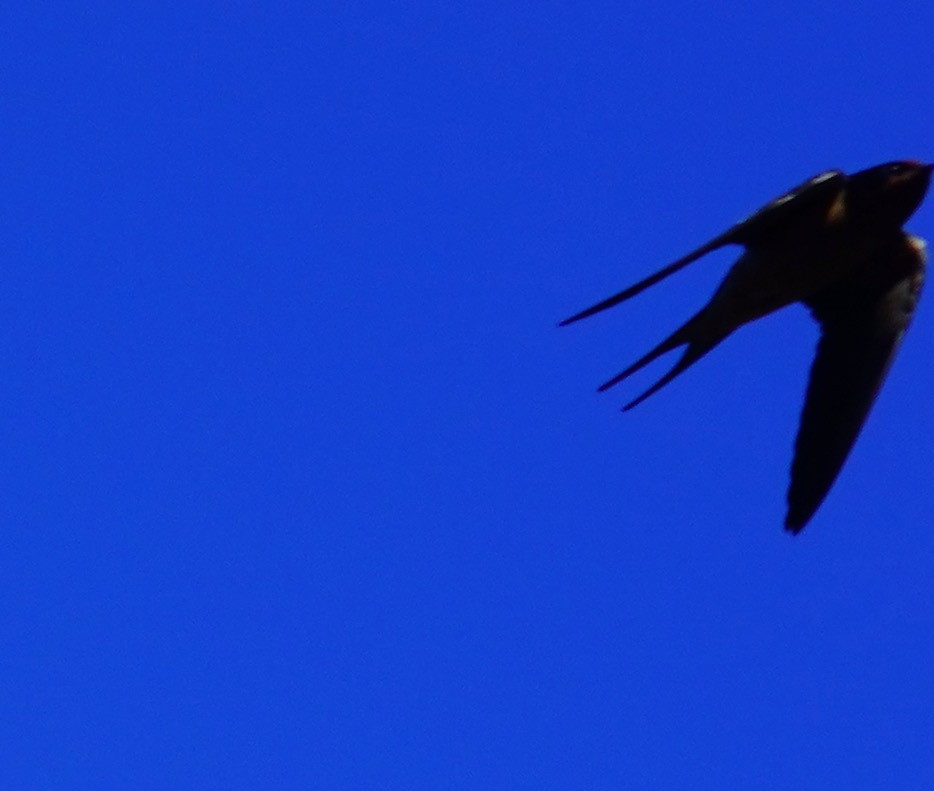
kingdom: Animalia
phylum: Chordata
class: Aves
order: Passeriformes
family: Hirundinidae
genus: Hirundo
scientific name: Hirundo rustica
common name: Barn swallow
